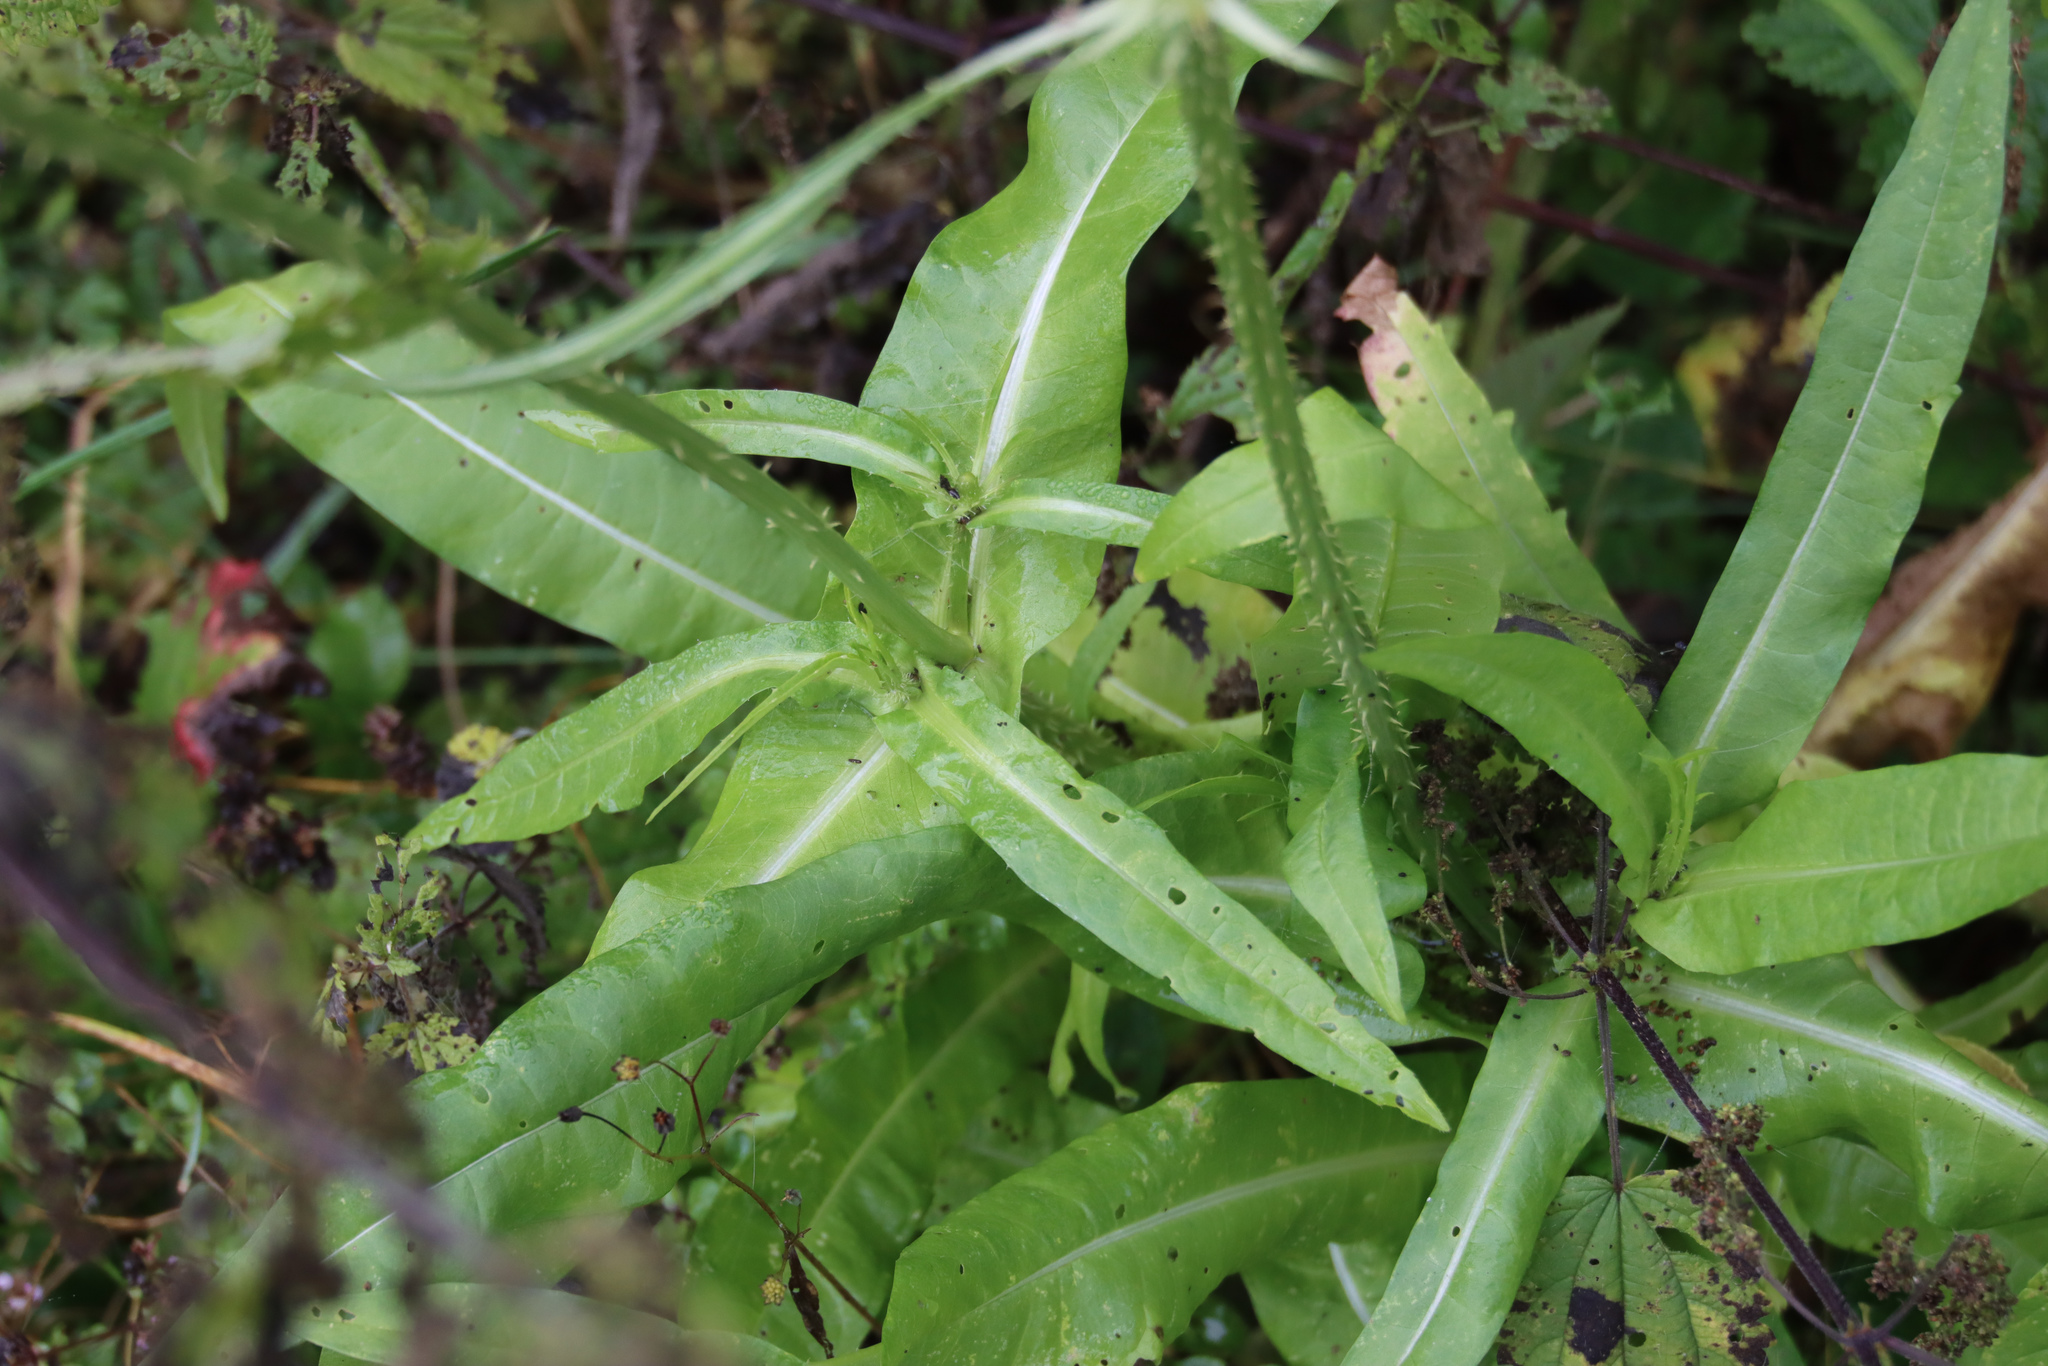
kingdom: Plantae
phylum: Tracheophyta
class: Magnoliopsida
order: Dipsacales
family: Caprifoliaceae
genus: Dipsacus
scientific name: Dipsacus fullonum
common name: Teasel
